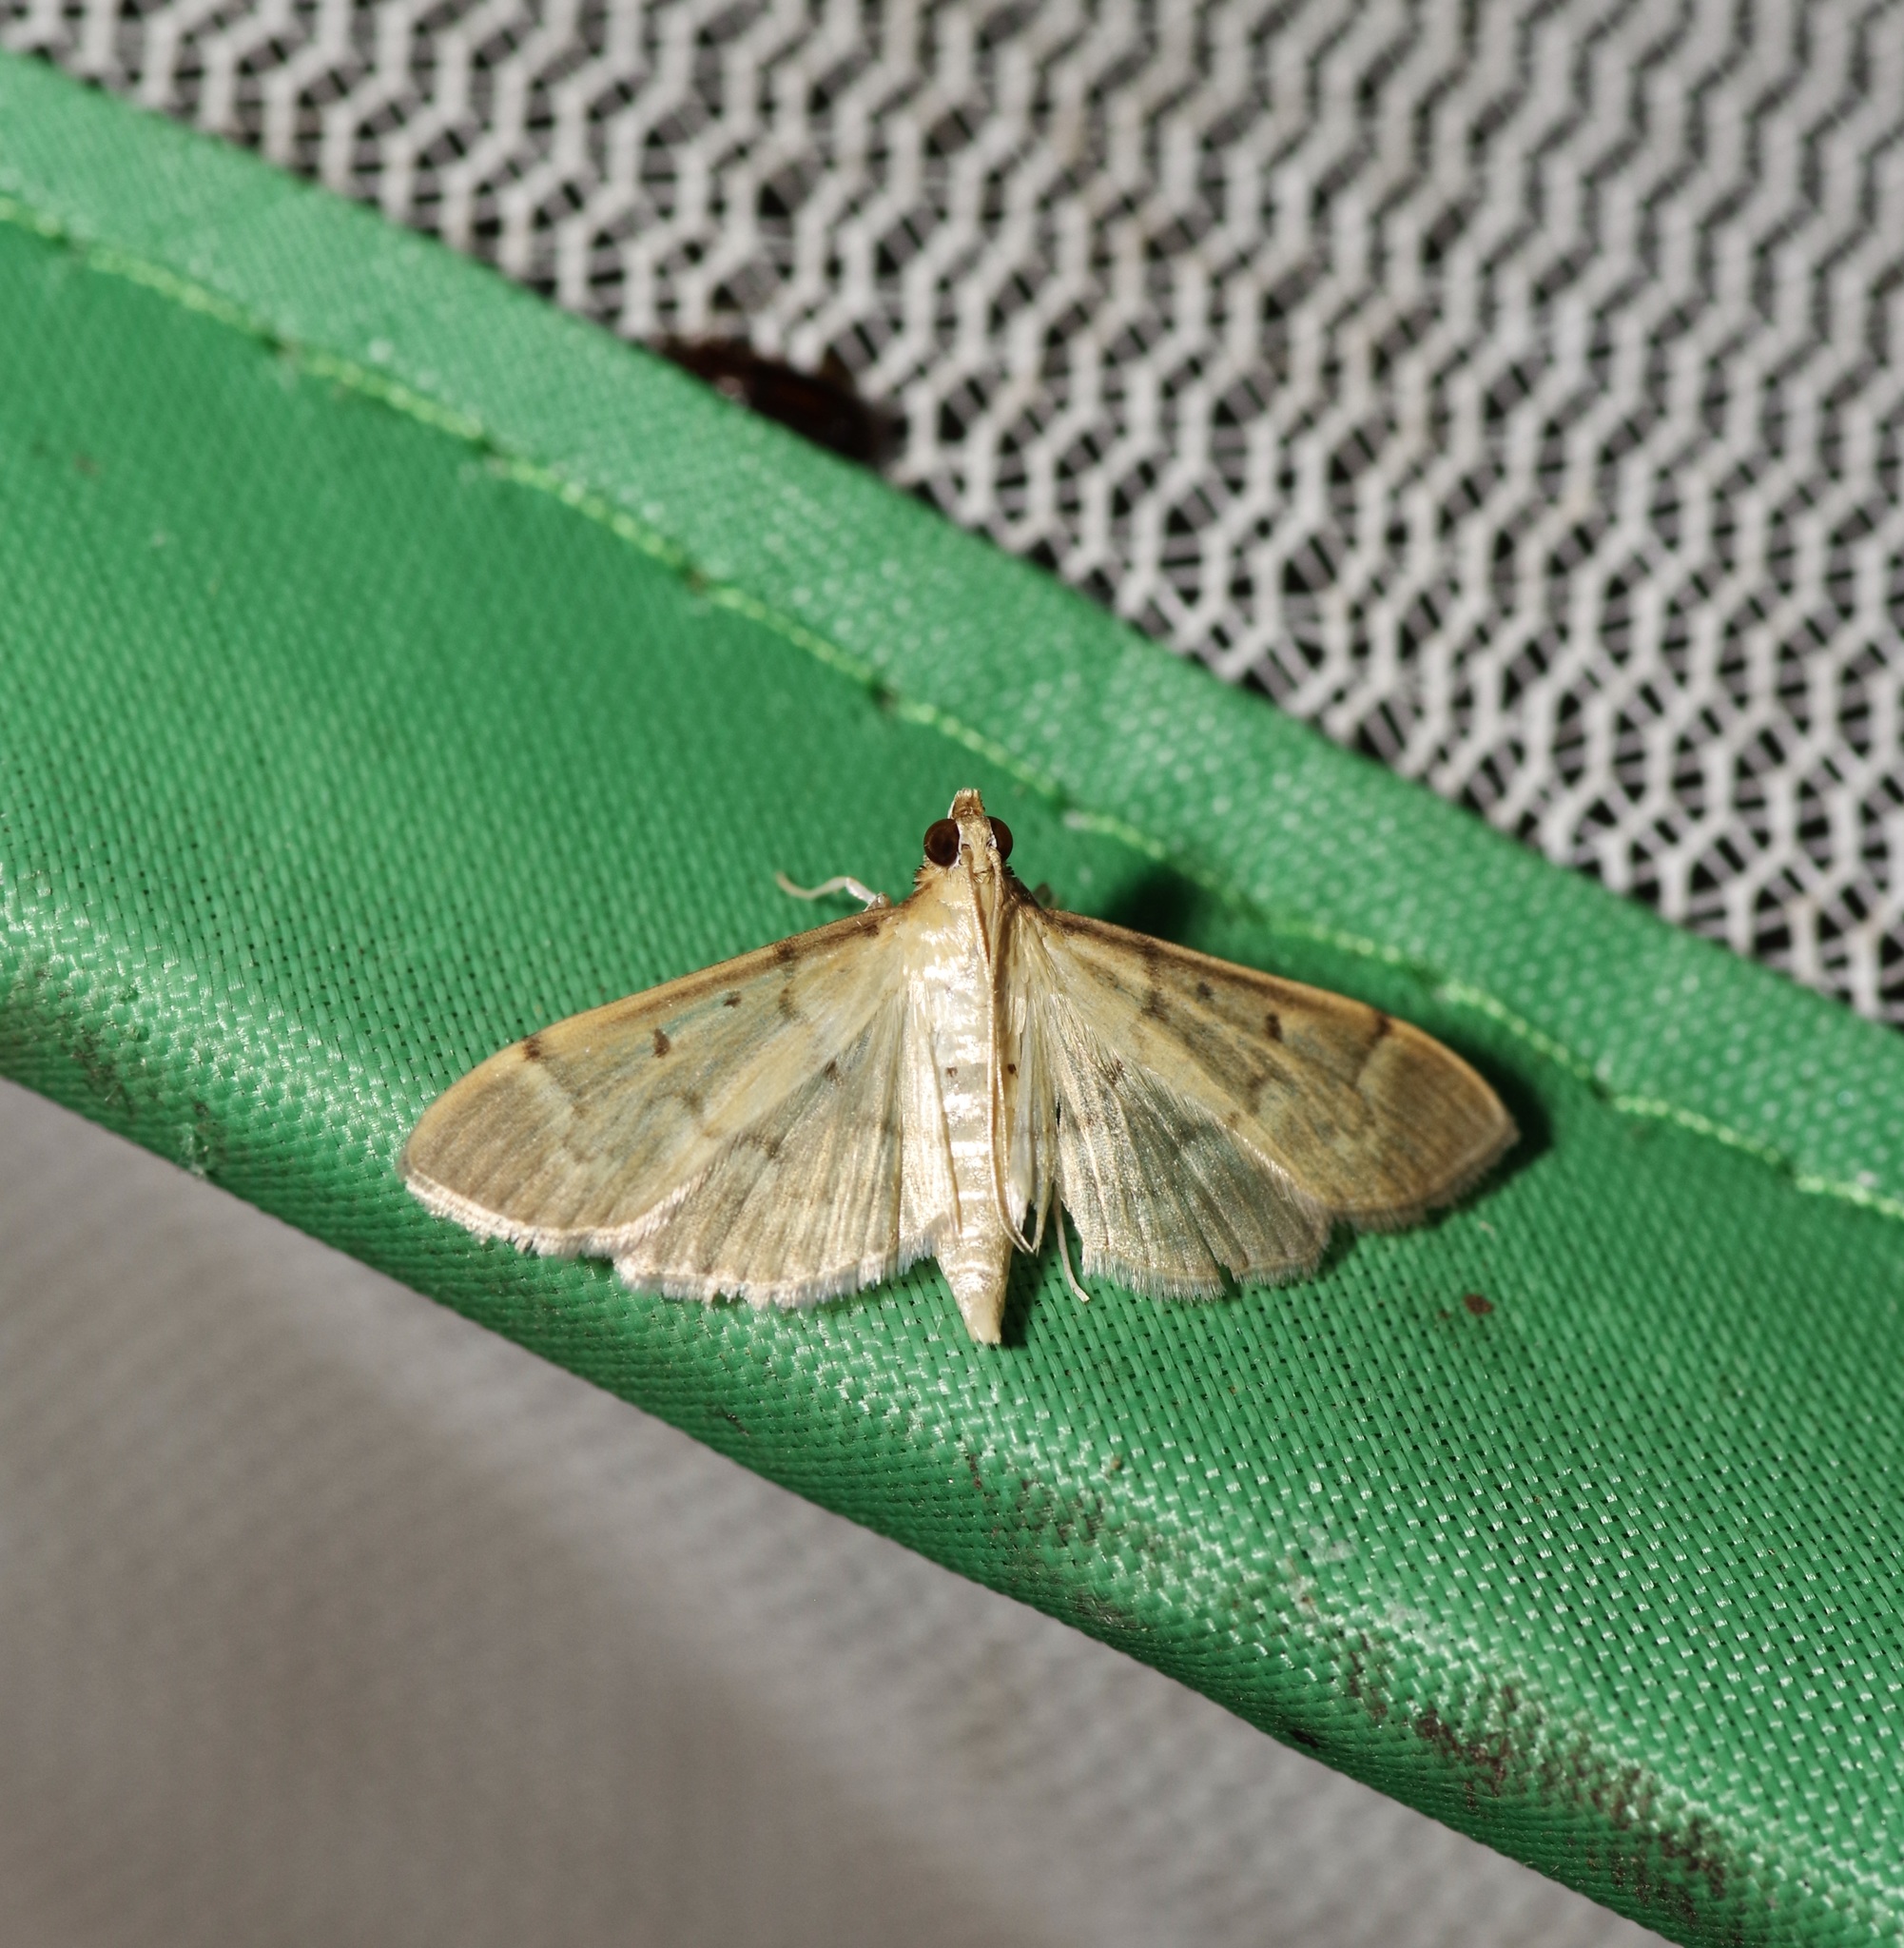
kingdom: Animalia
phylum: Arthropoda
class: Insecta
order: Lepidoptera
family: Crambidae
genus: Herpetogramma
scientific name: Herpetogramma bipunctalis
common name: Southern beet webworm
